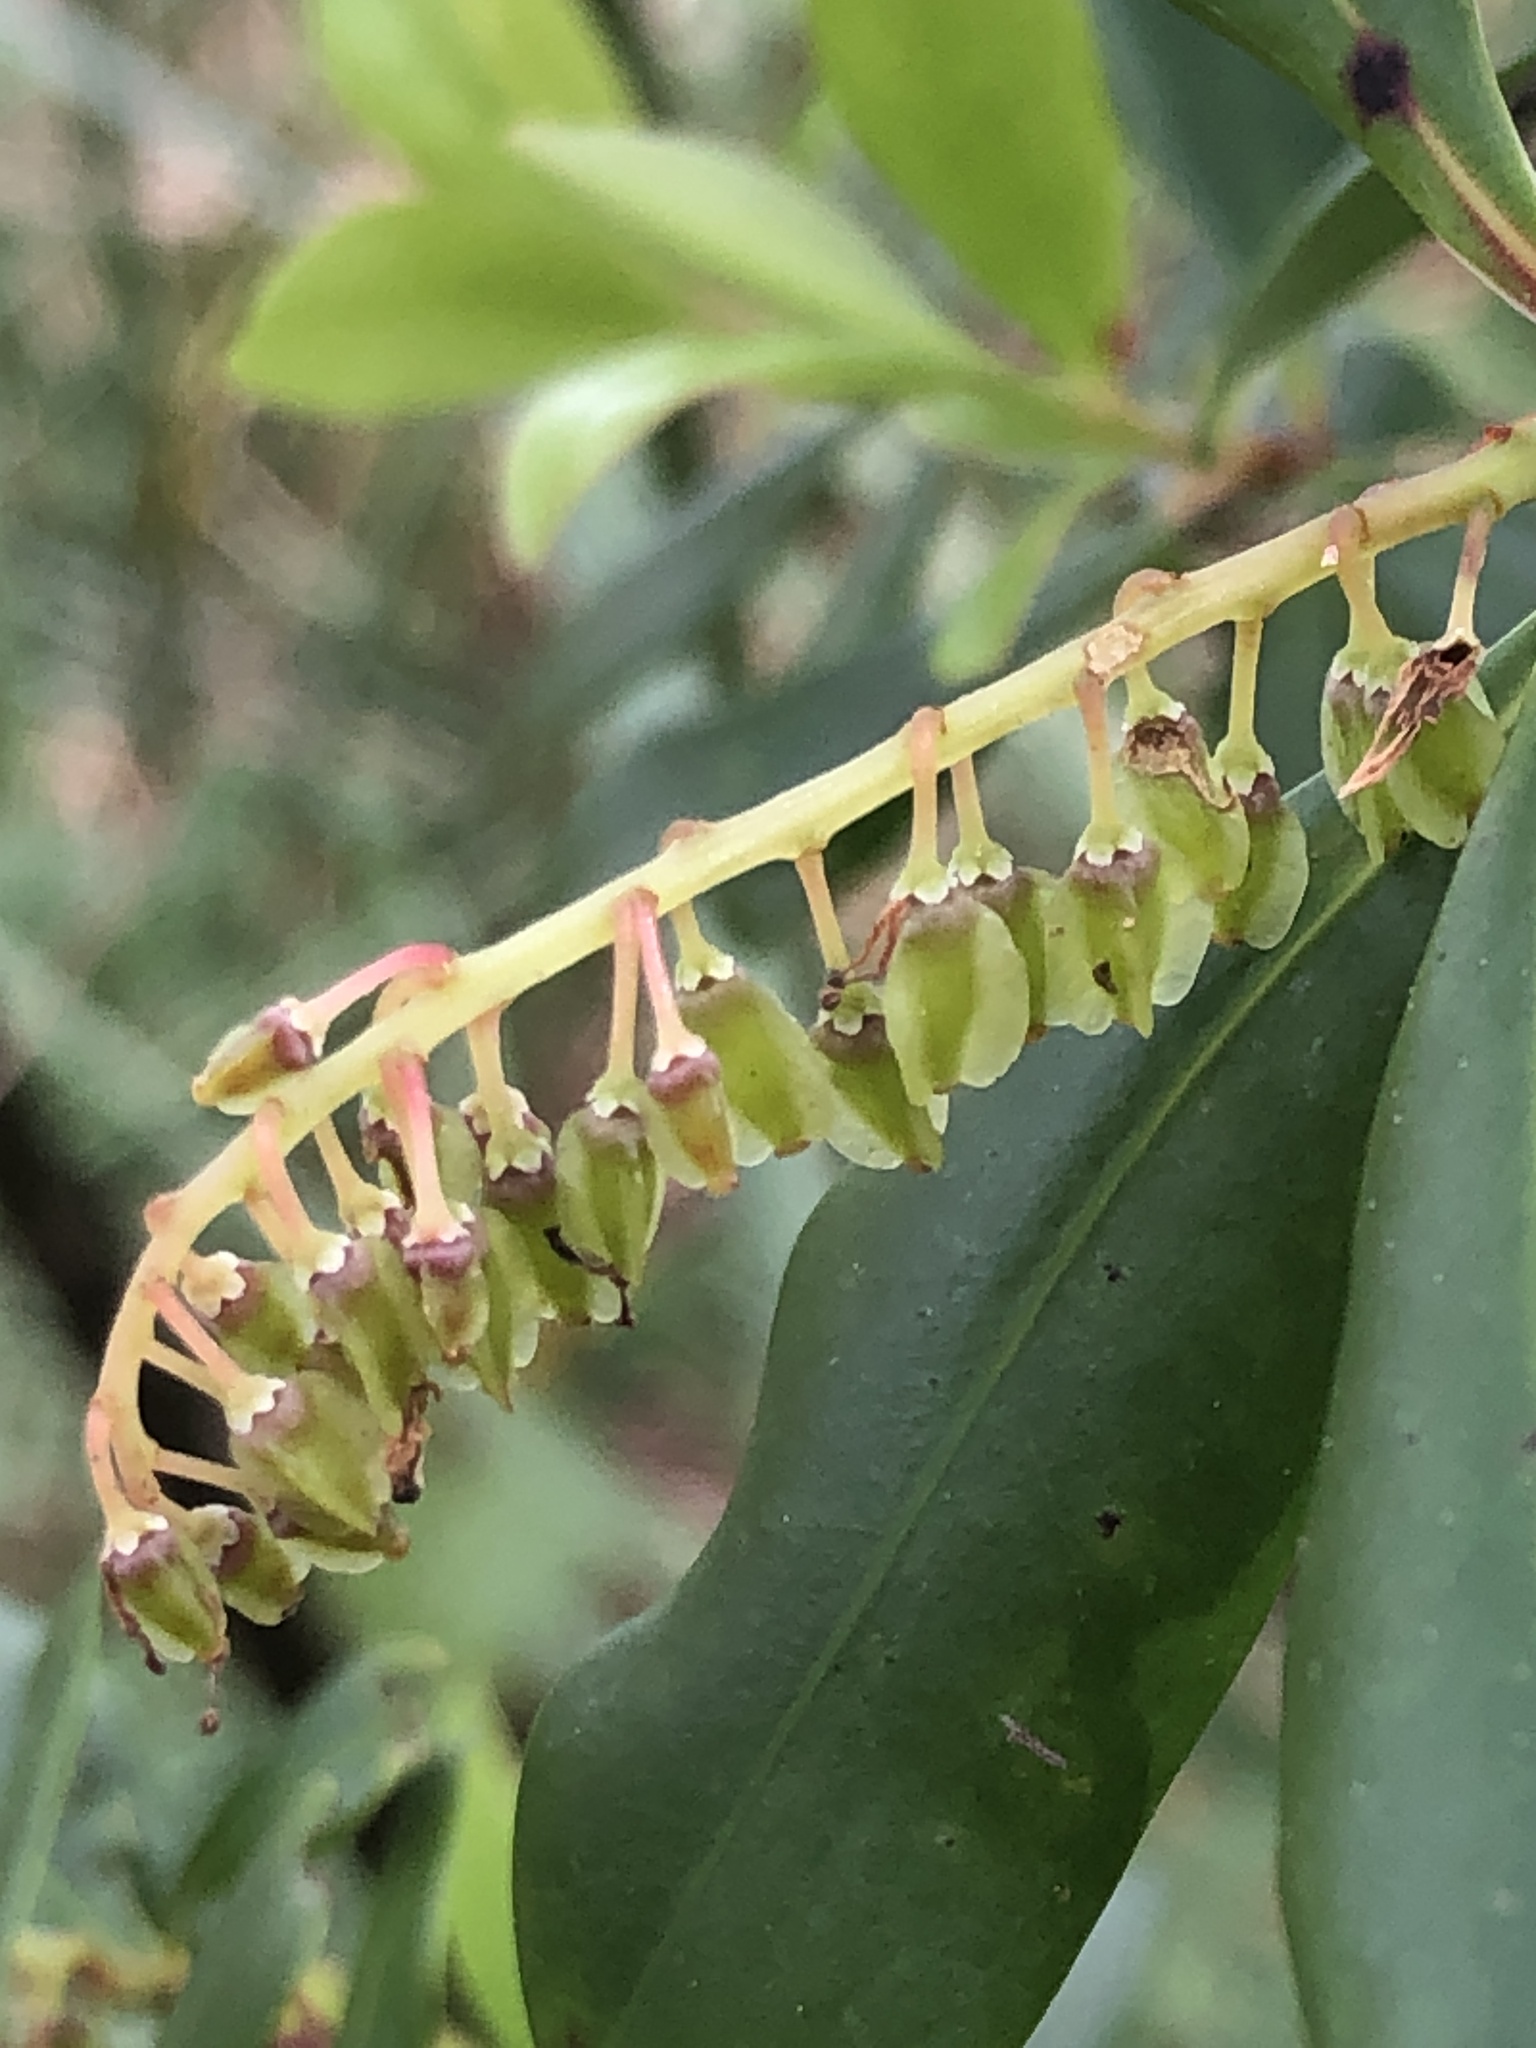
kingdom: Plantae
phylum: Tracheophyta
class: Magnoliopsida
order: Ericales
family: Cyrillaceae
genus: Cliftonia
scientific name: Cliftonia monophylla
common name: Titi
